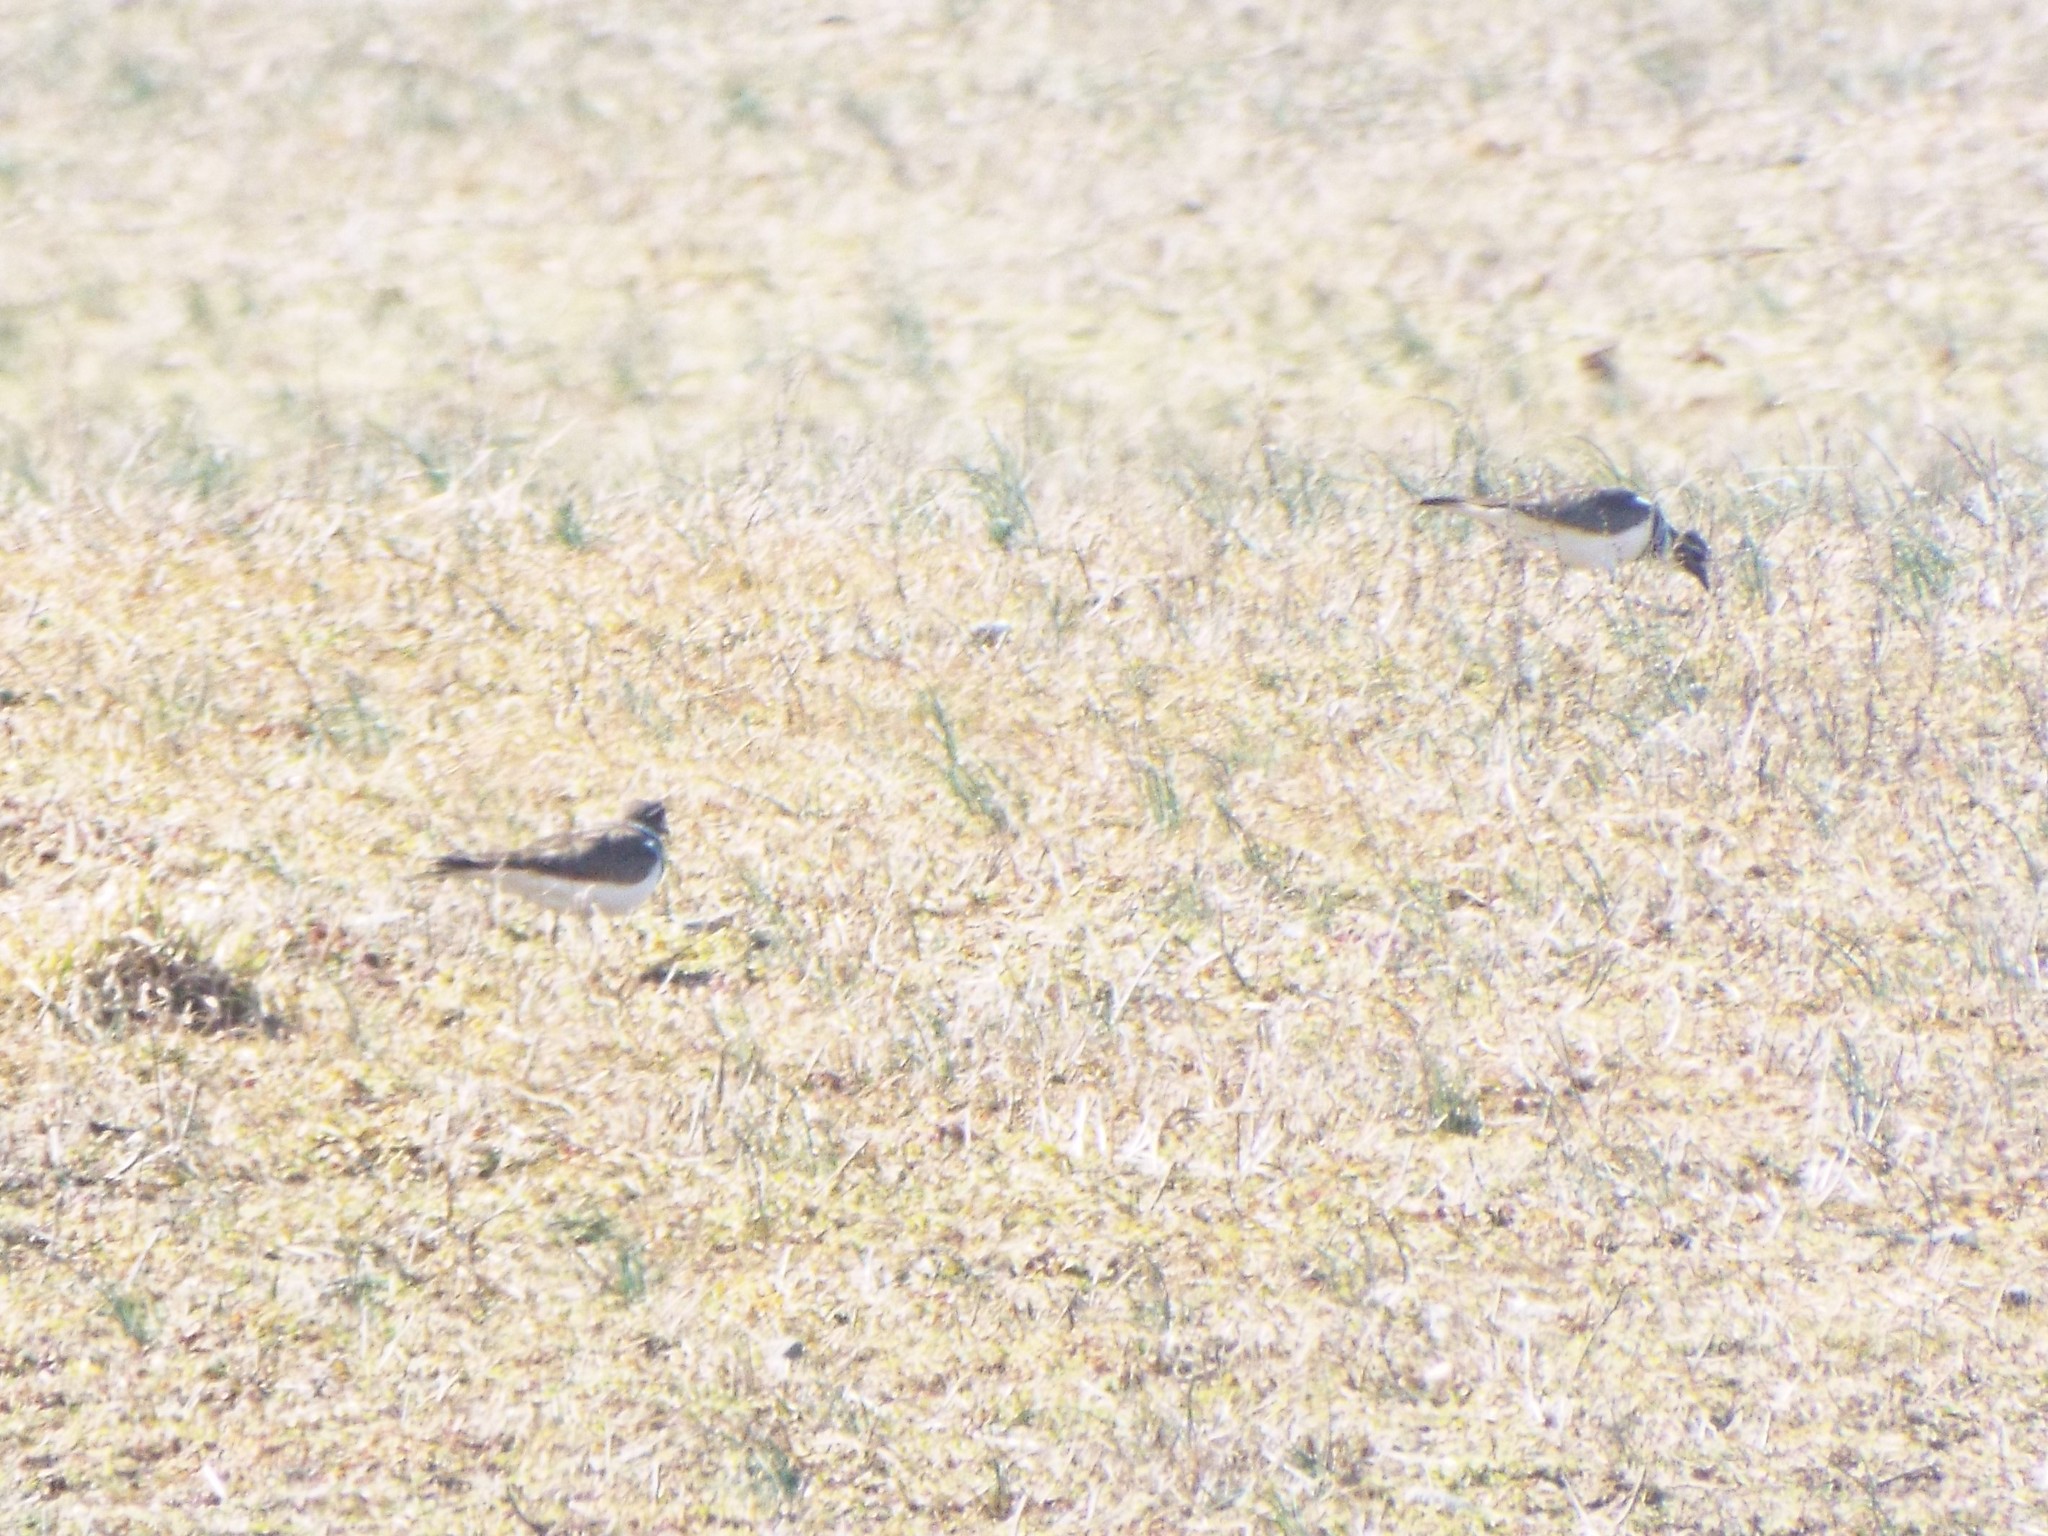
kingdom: Animalia
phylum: Chordata
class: Aves
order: Charadriiformes
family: Charadriidae
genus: Charadrius
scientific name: Charadrius vociferus
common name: Killdeer
